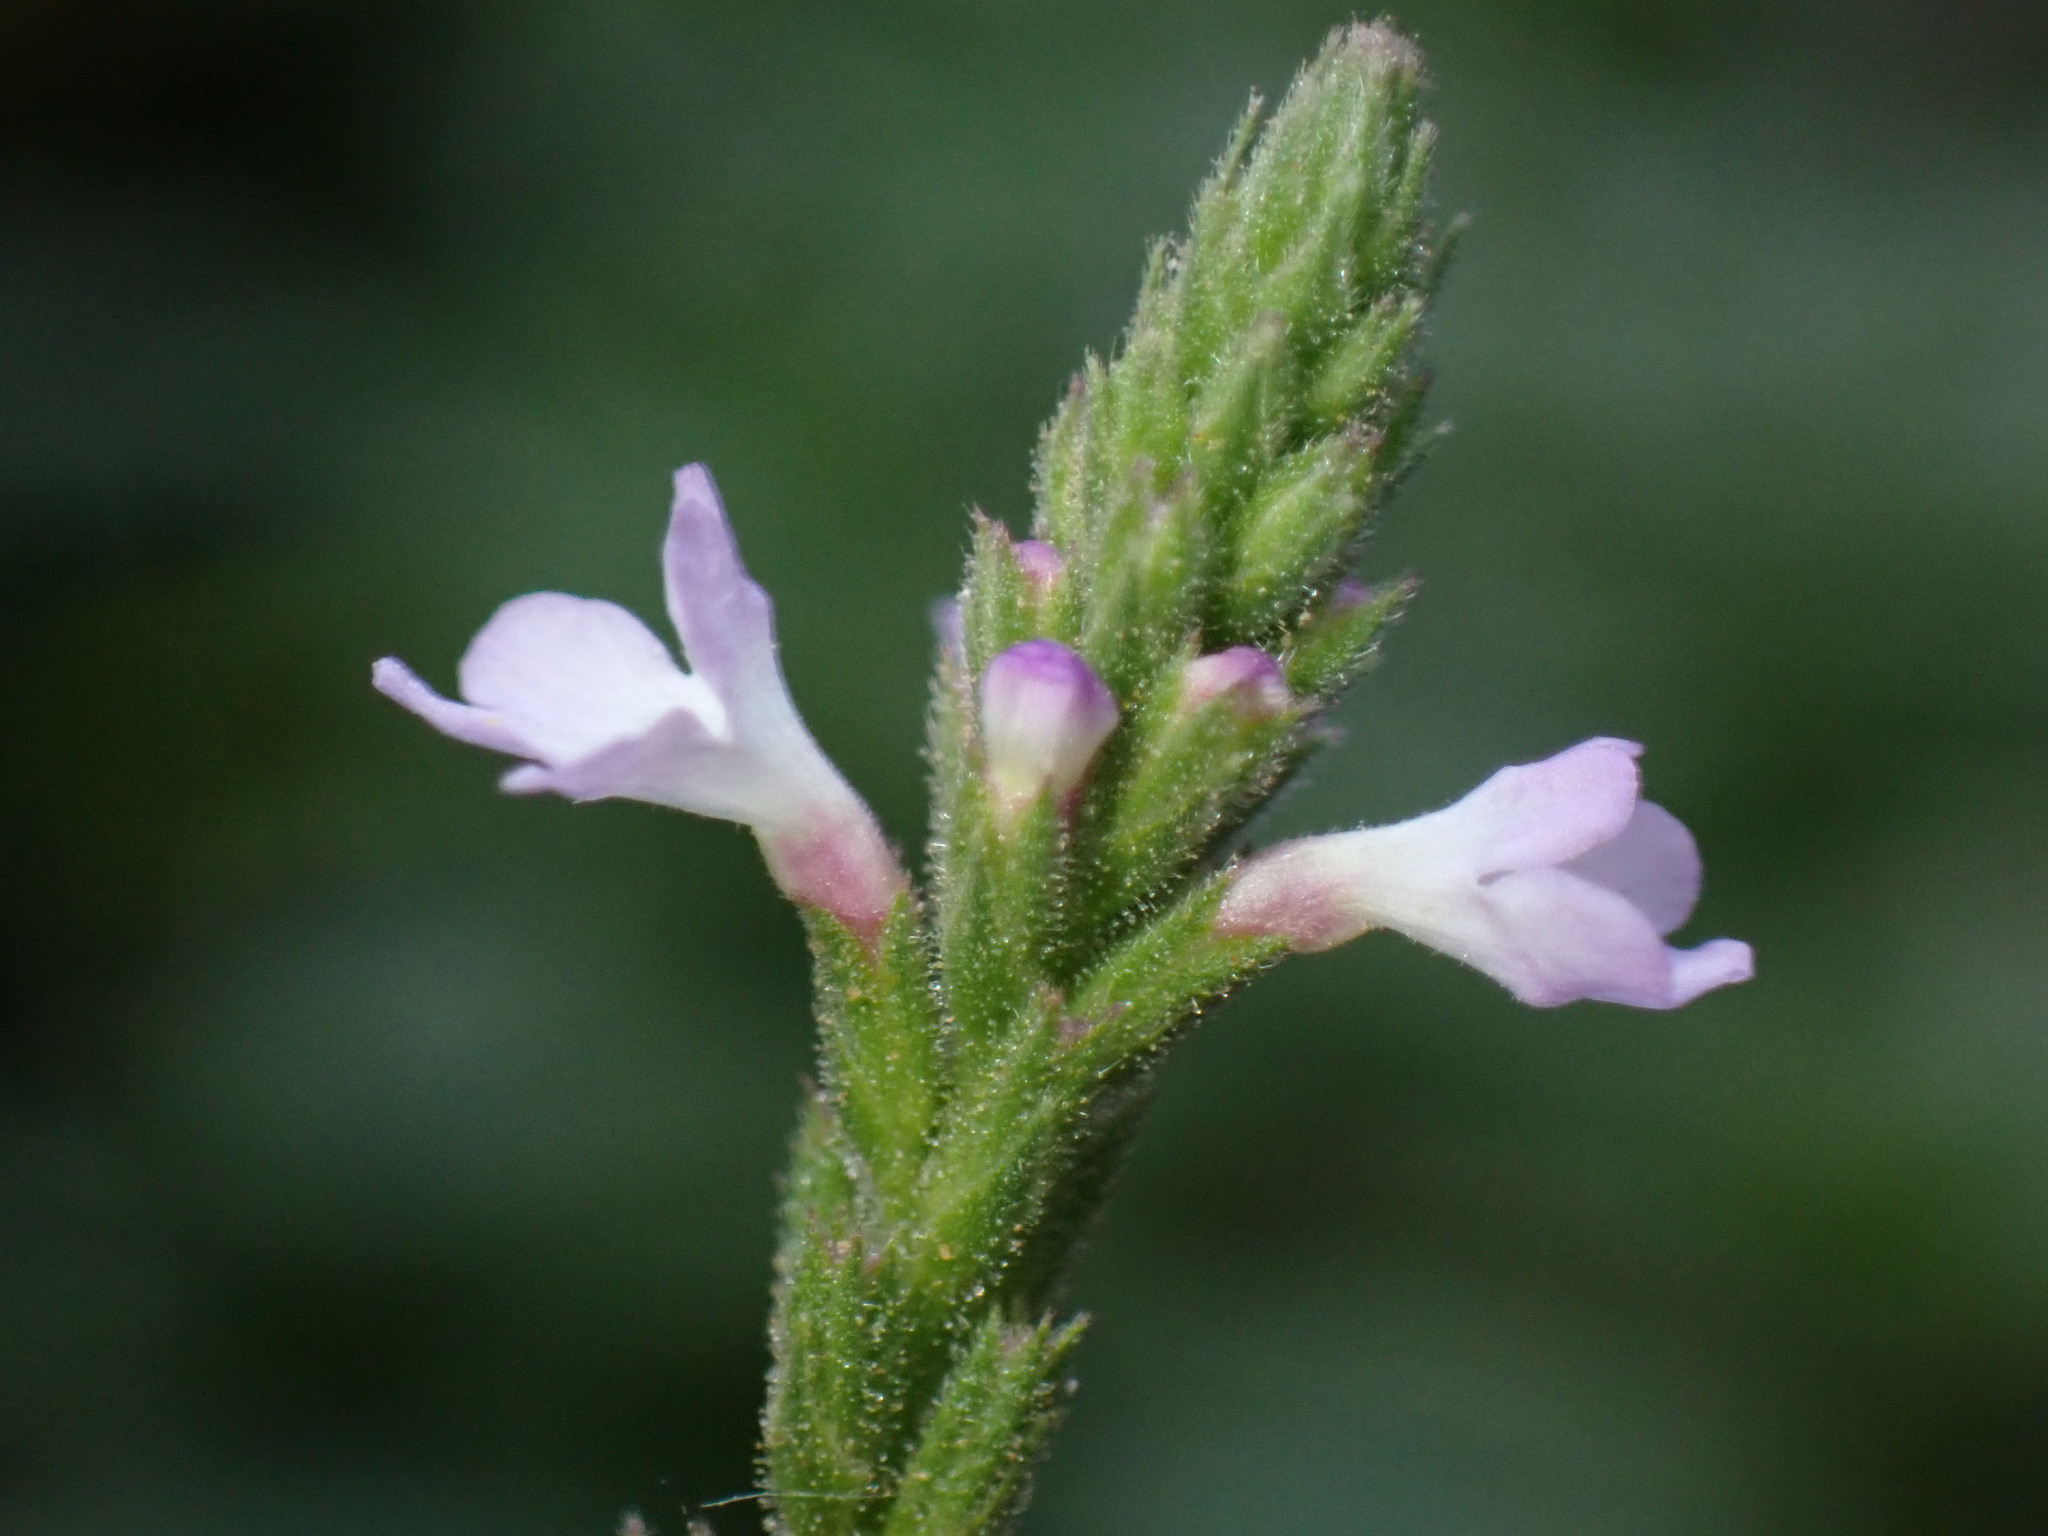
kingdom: Plantae
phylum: Tracheophyta
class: Magnoliopsida
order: Lamiales
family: Verbenaceae
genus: Verbena
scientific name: Verbena officinalis
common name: Vervain
